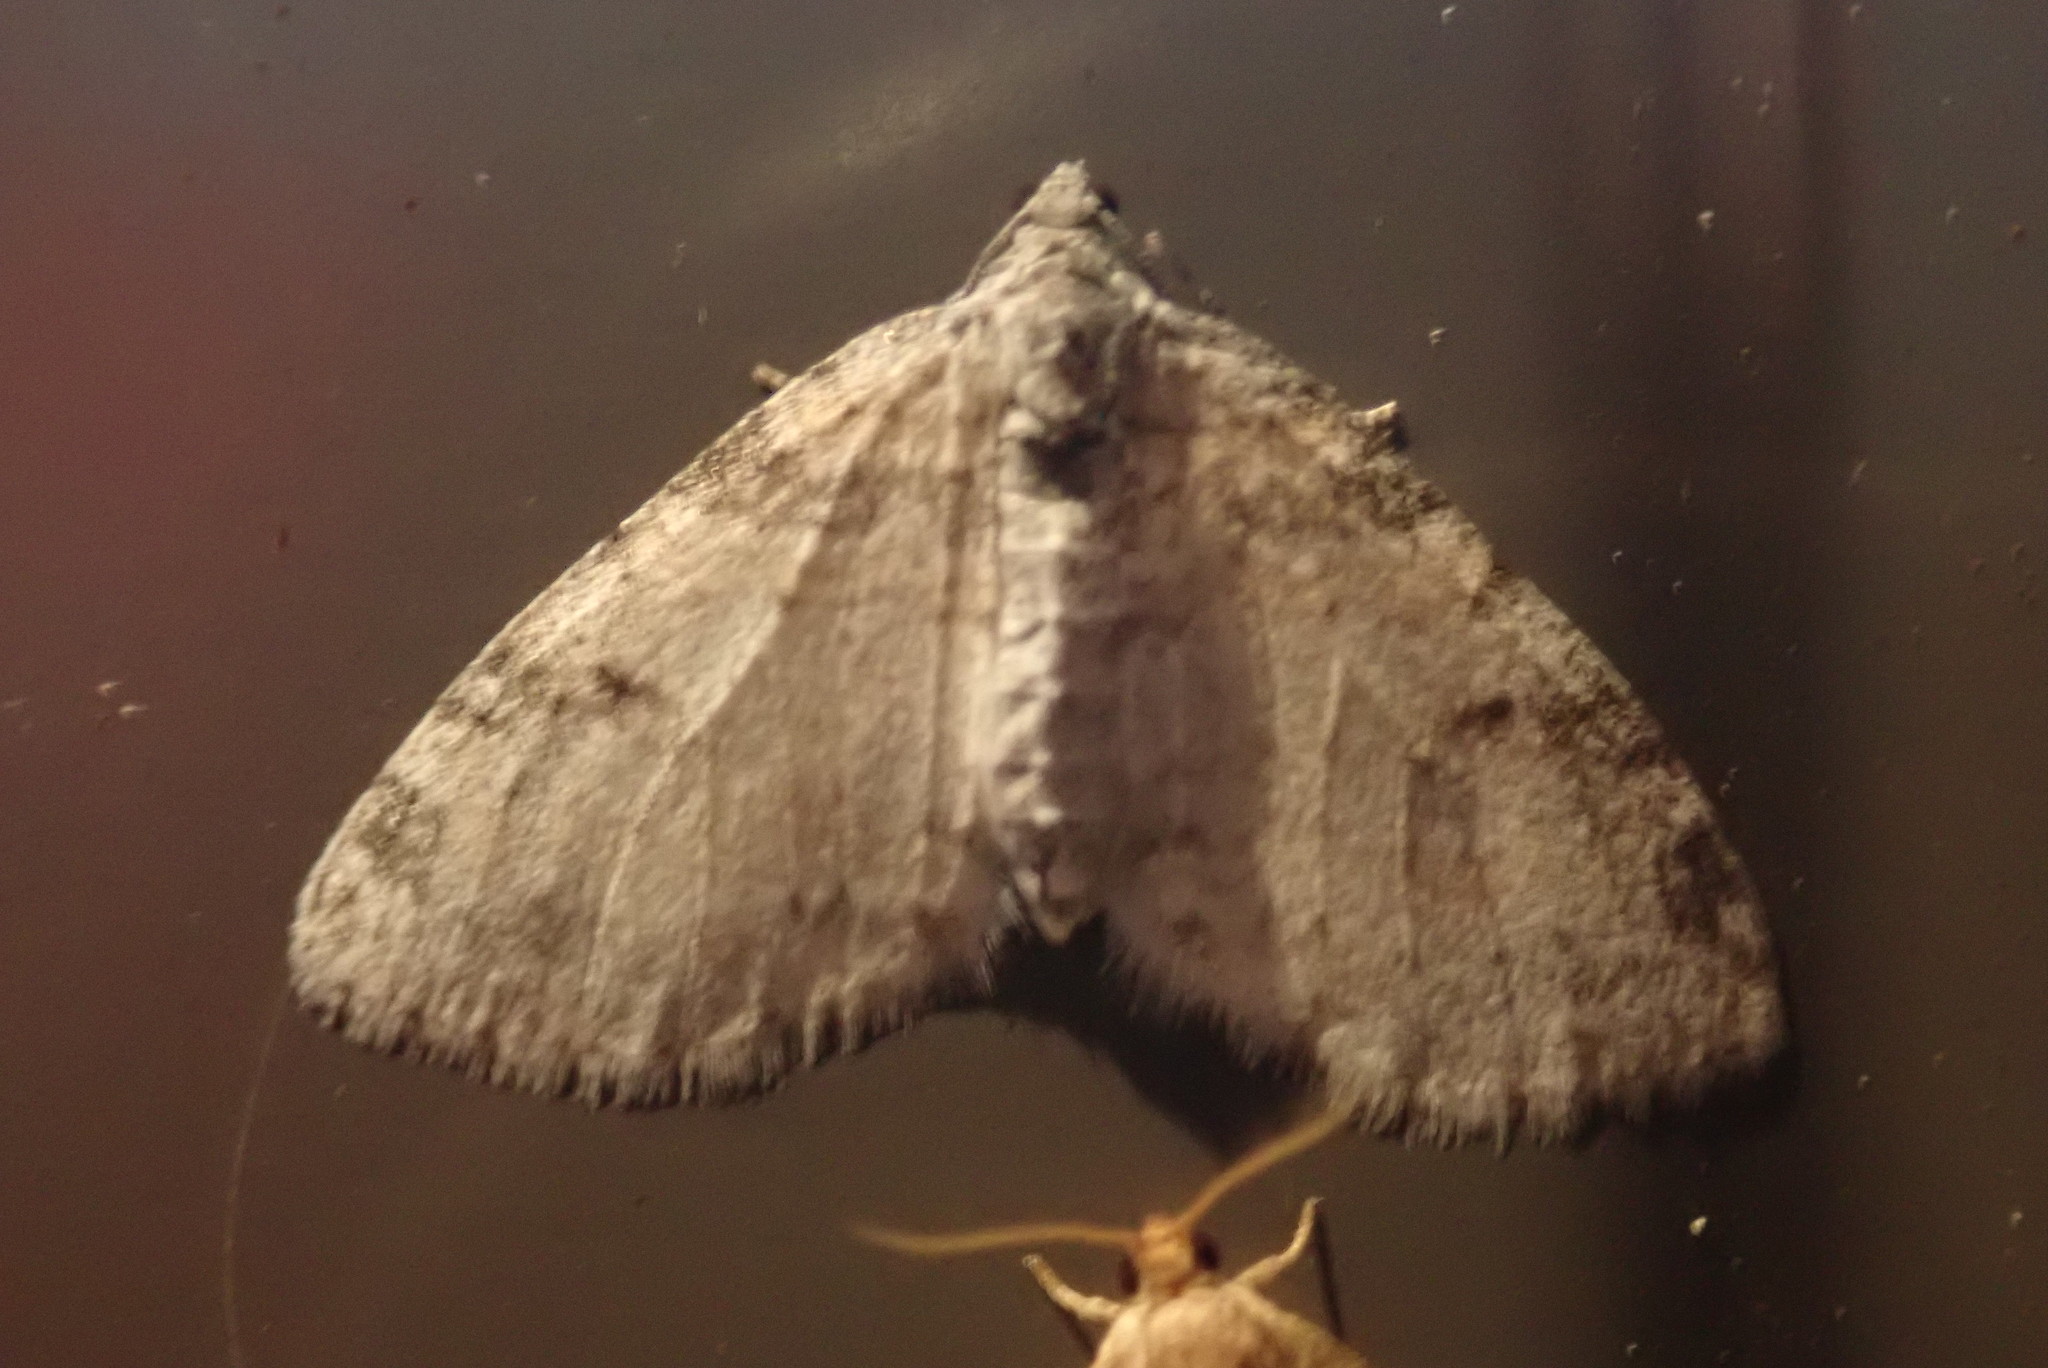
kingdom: Animalia
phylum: Arthropoda
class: Insecta
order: Lepidoptera
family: Geometridae
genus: Lobophora
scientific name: Lobophora nivigerata
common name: Powdered bigwing
